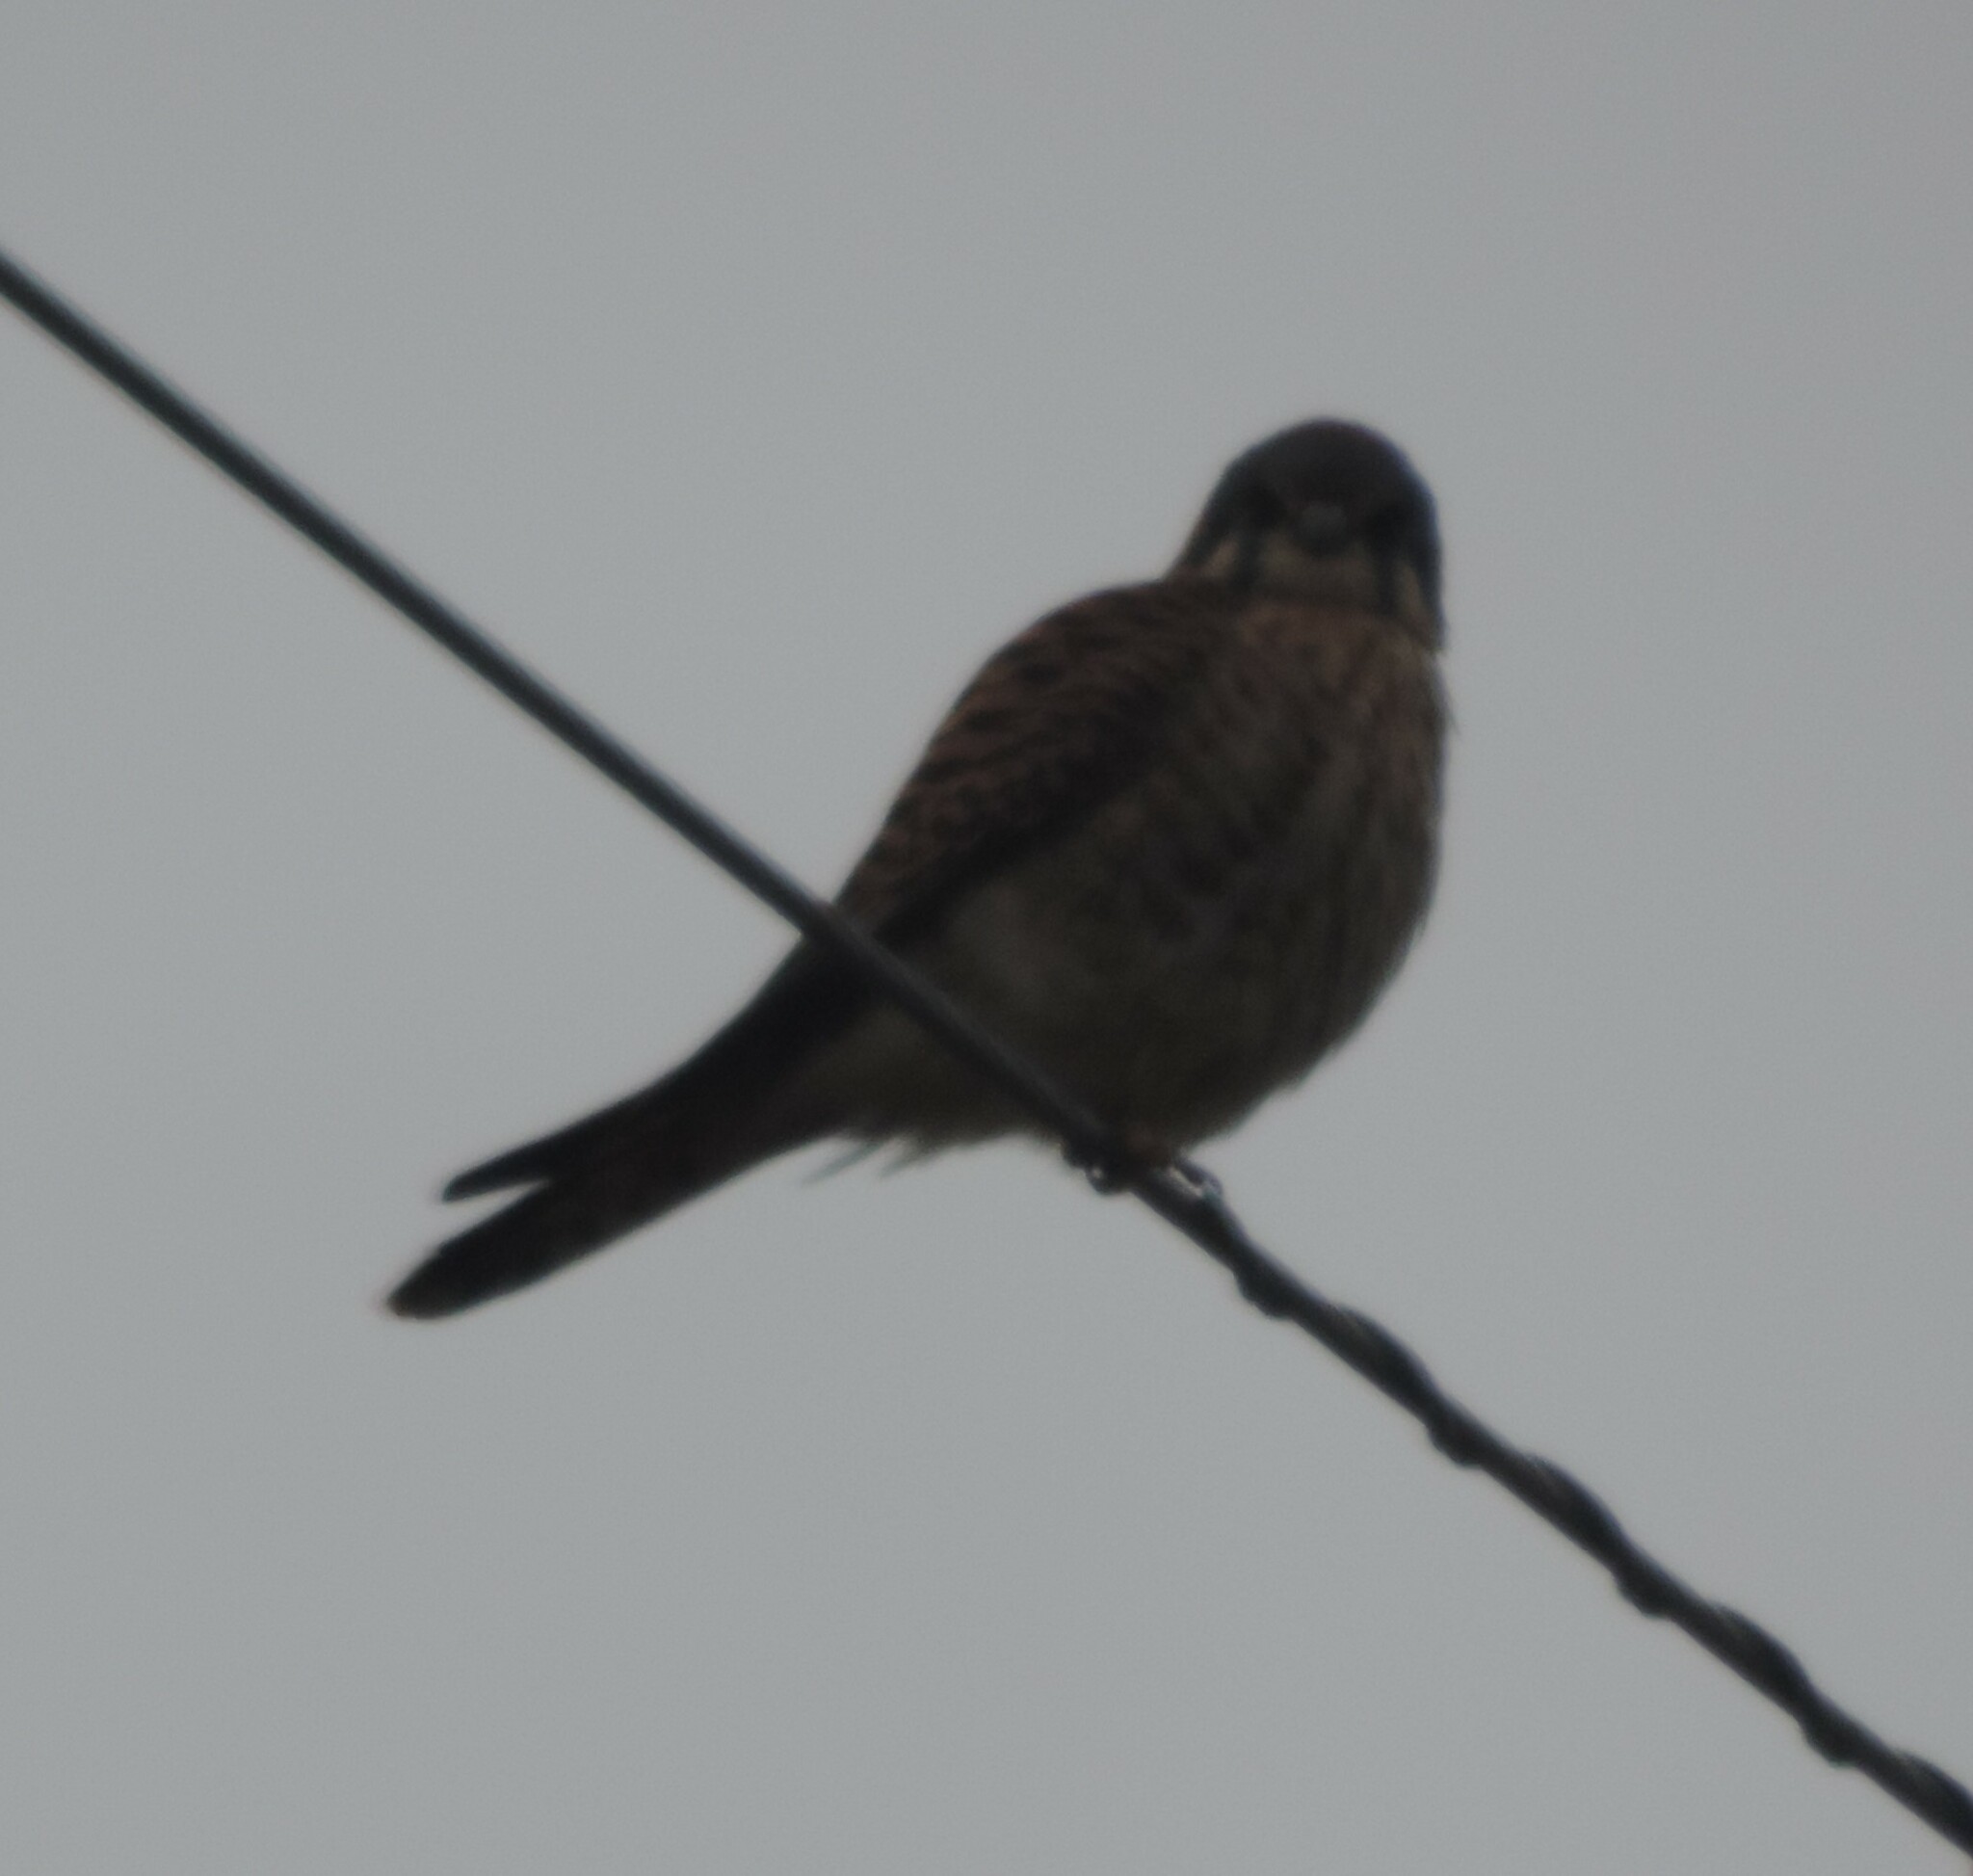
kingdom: Animalia
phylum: Chordata
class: Aves
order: Falconiformes
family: Falconidae
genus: Falco
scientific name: Falco sparverius
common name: American kestrel
